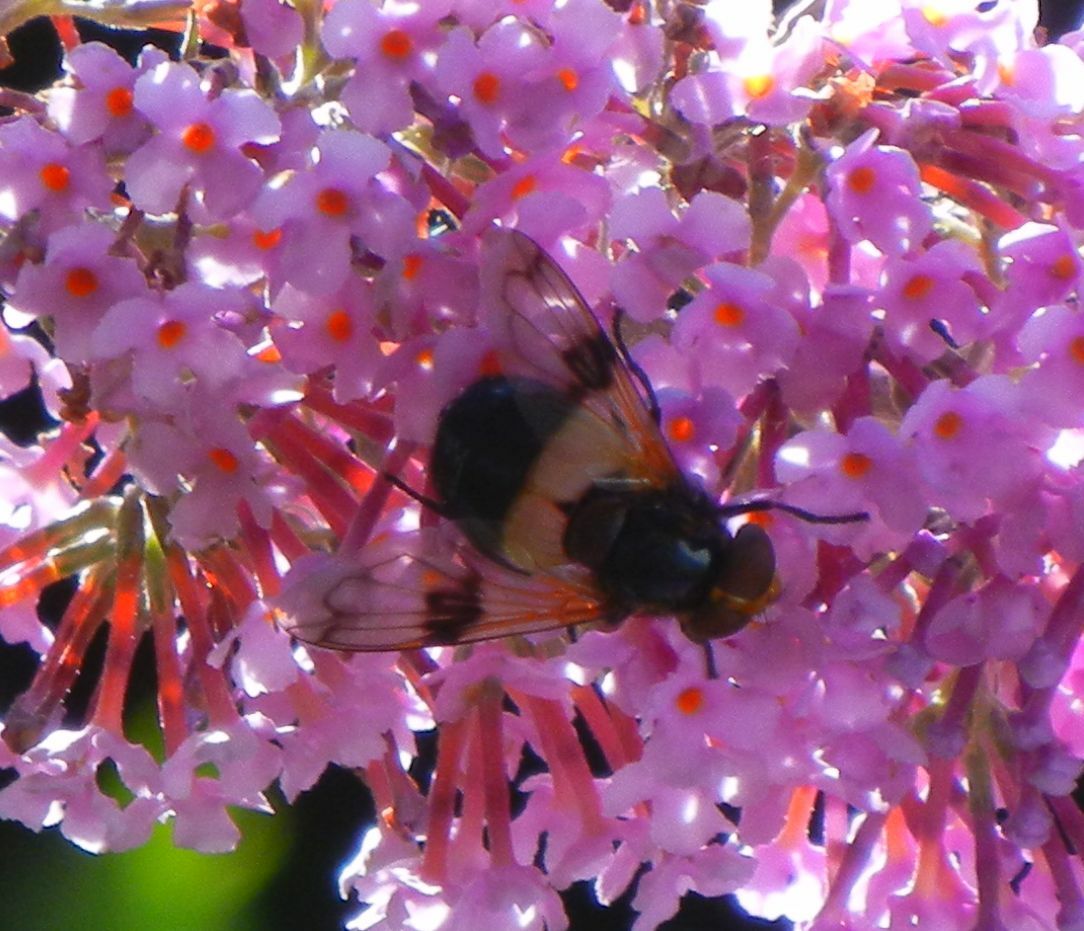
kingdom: Animalia
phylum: Arthropoda
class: Insecta
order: Diptera
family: Syrphidae
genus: Volucella
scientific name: Volucella pellucens
